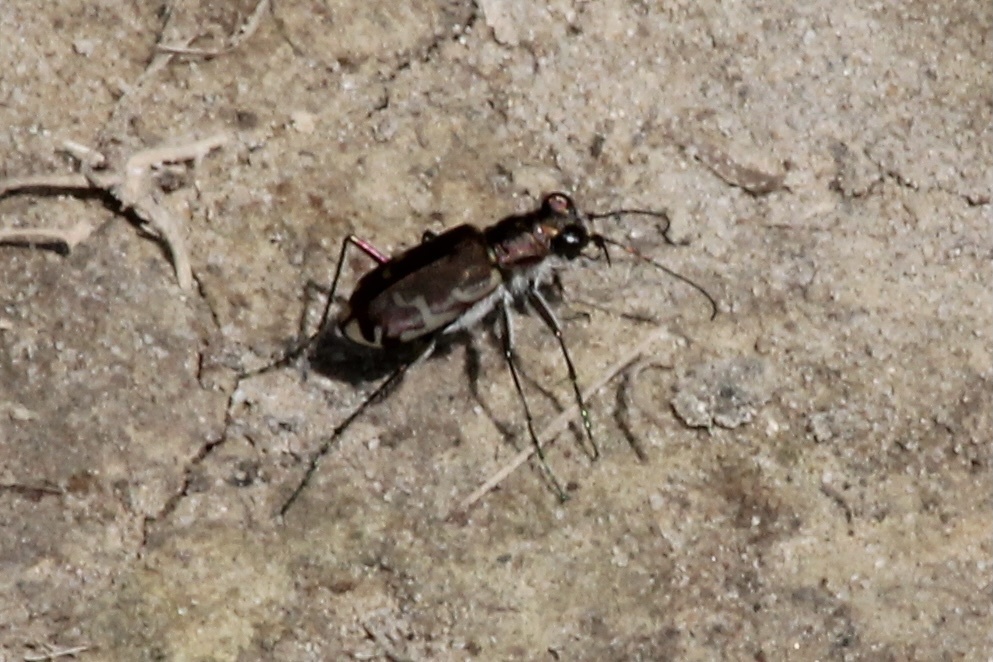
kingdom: Animalia
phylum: Arthropoda
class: Insecta
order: Coleoptera
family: Carabidae
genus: Cicindela
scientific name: Cicindela repanda
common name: Bronzed tiger beetle
